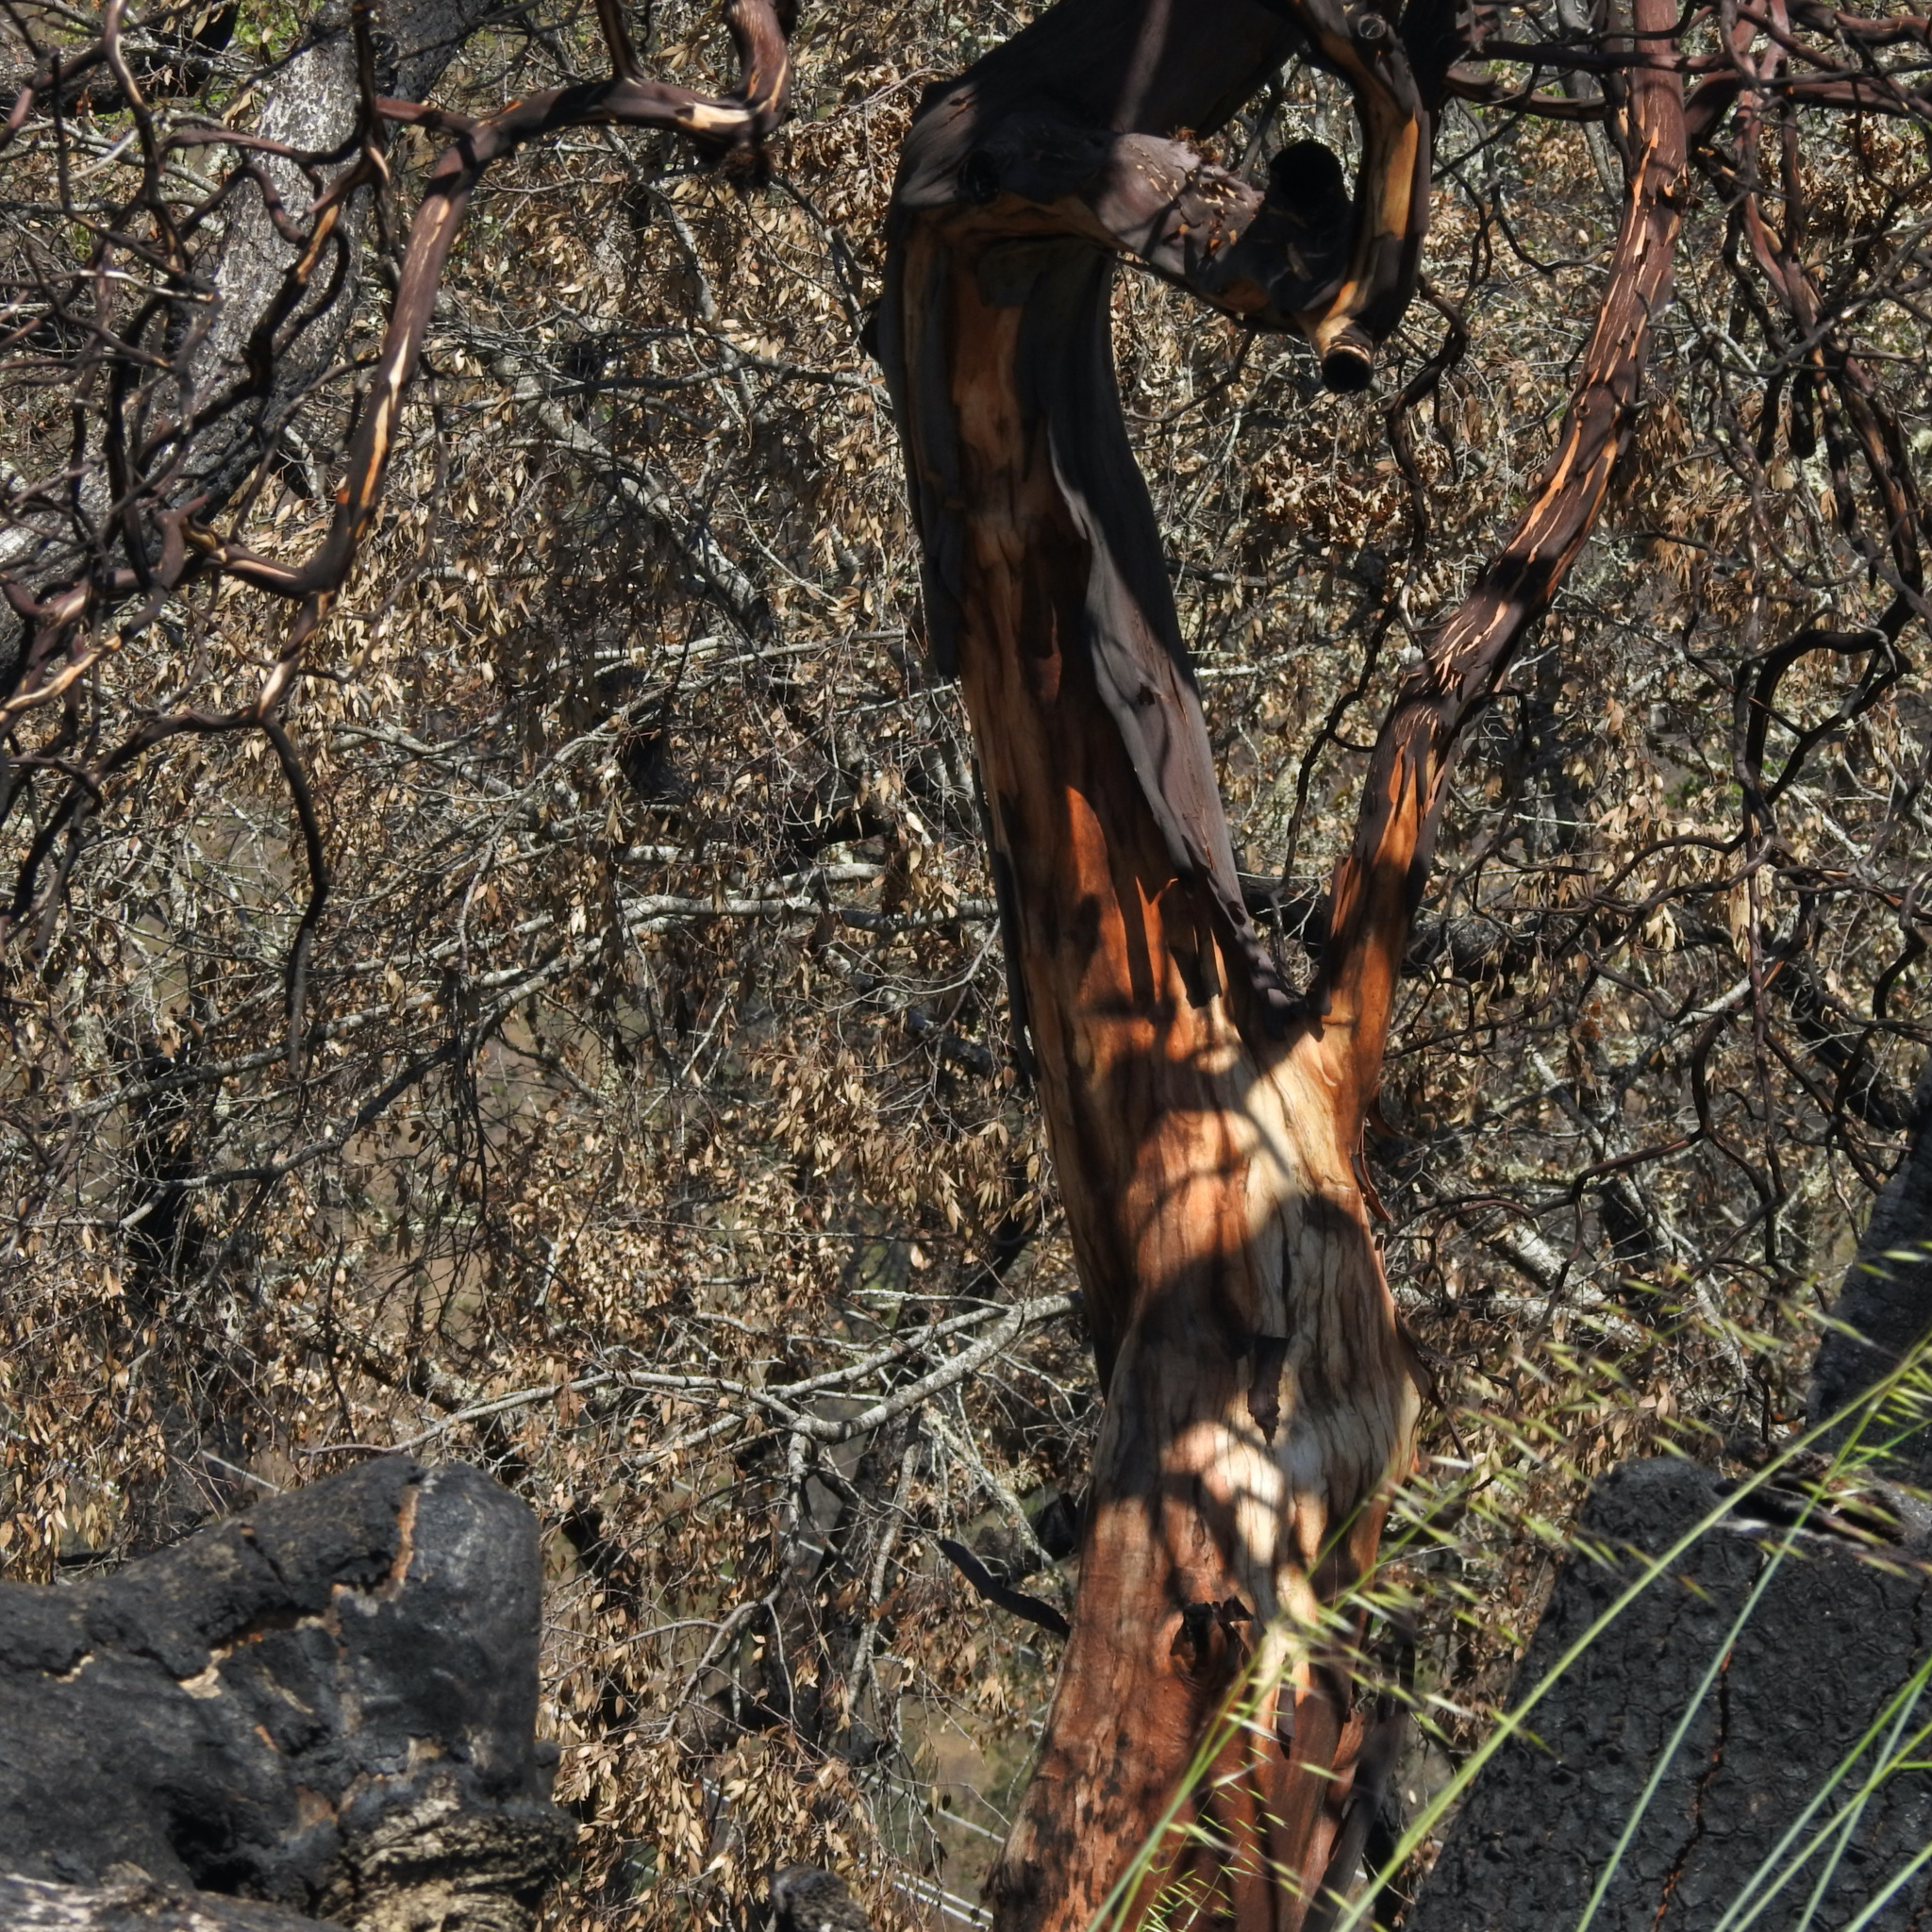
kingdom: Plantae
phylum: Tracheophyta
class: Magnoliopsida
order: Ericales
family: Ericaceae
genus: Arbutus
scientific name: Arbutus menziesii
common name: Pacific madrone
